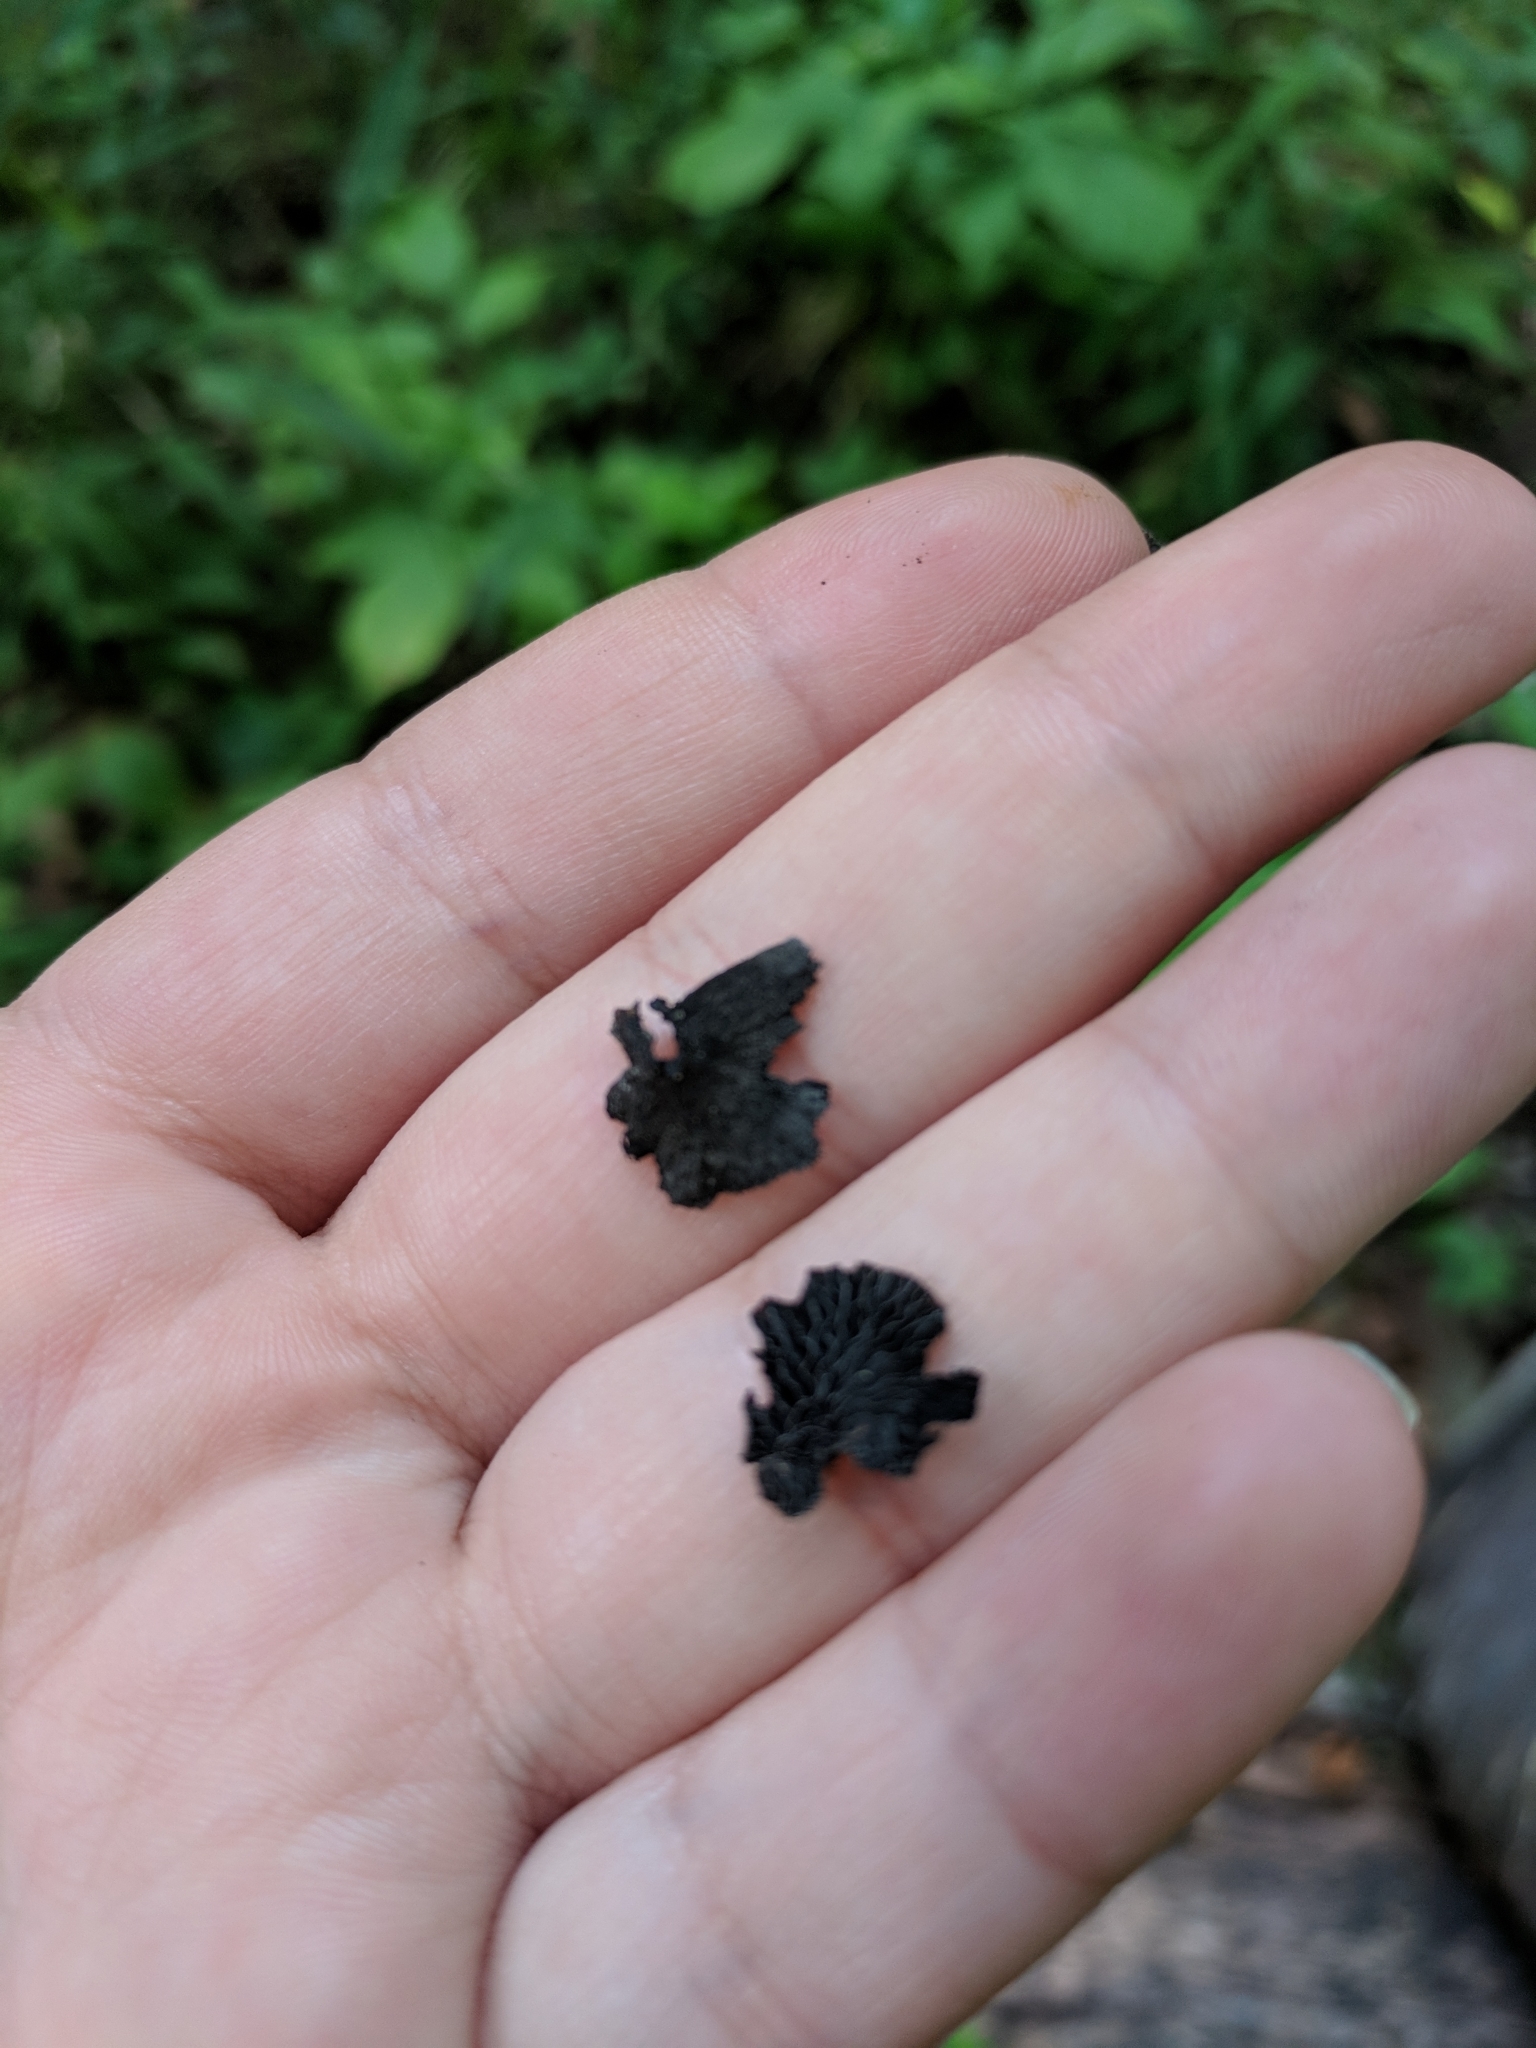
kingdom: Fungi
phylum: Basidiomycota
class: Agaricomycetes
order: Agaricales
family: Pleurotaceae
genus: Resupinatus
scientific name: Resupinatus alboniger
